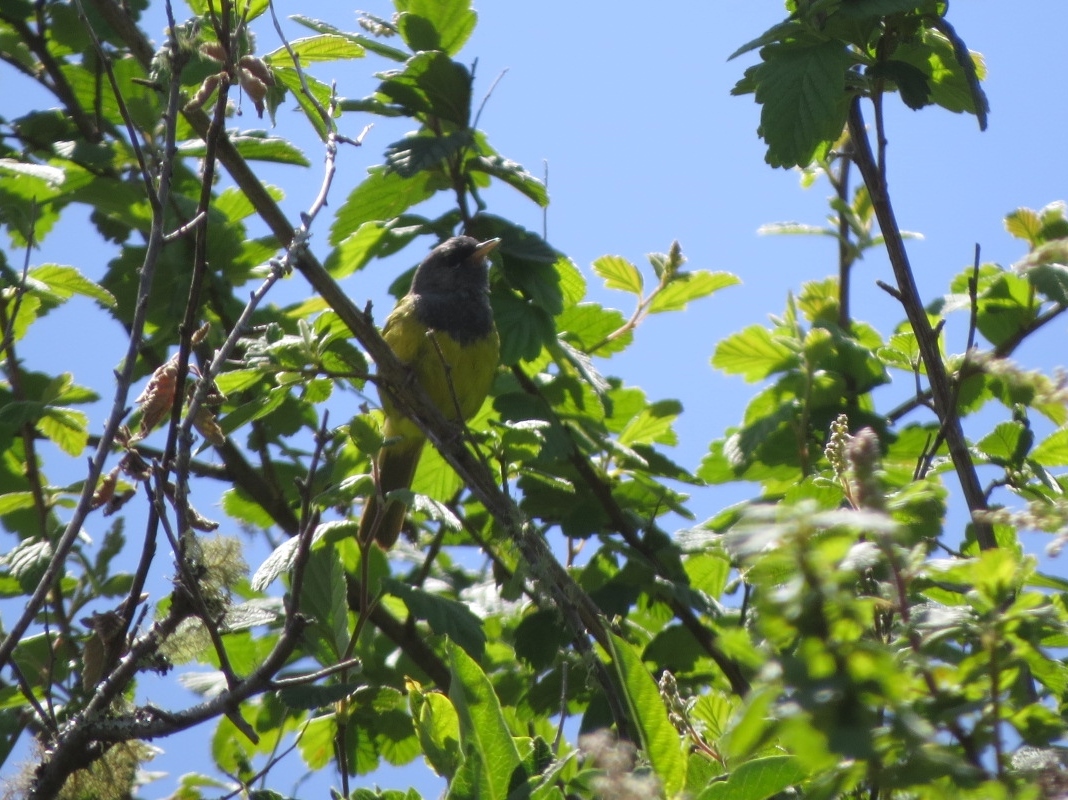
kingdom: Animalia
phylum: Chordata
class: Aves
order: Passeriformes
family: Parulidae
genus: Geothlypis
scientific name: Geothlypis tolmiei
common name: Macgillivray's warbler
